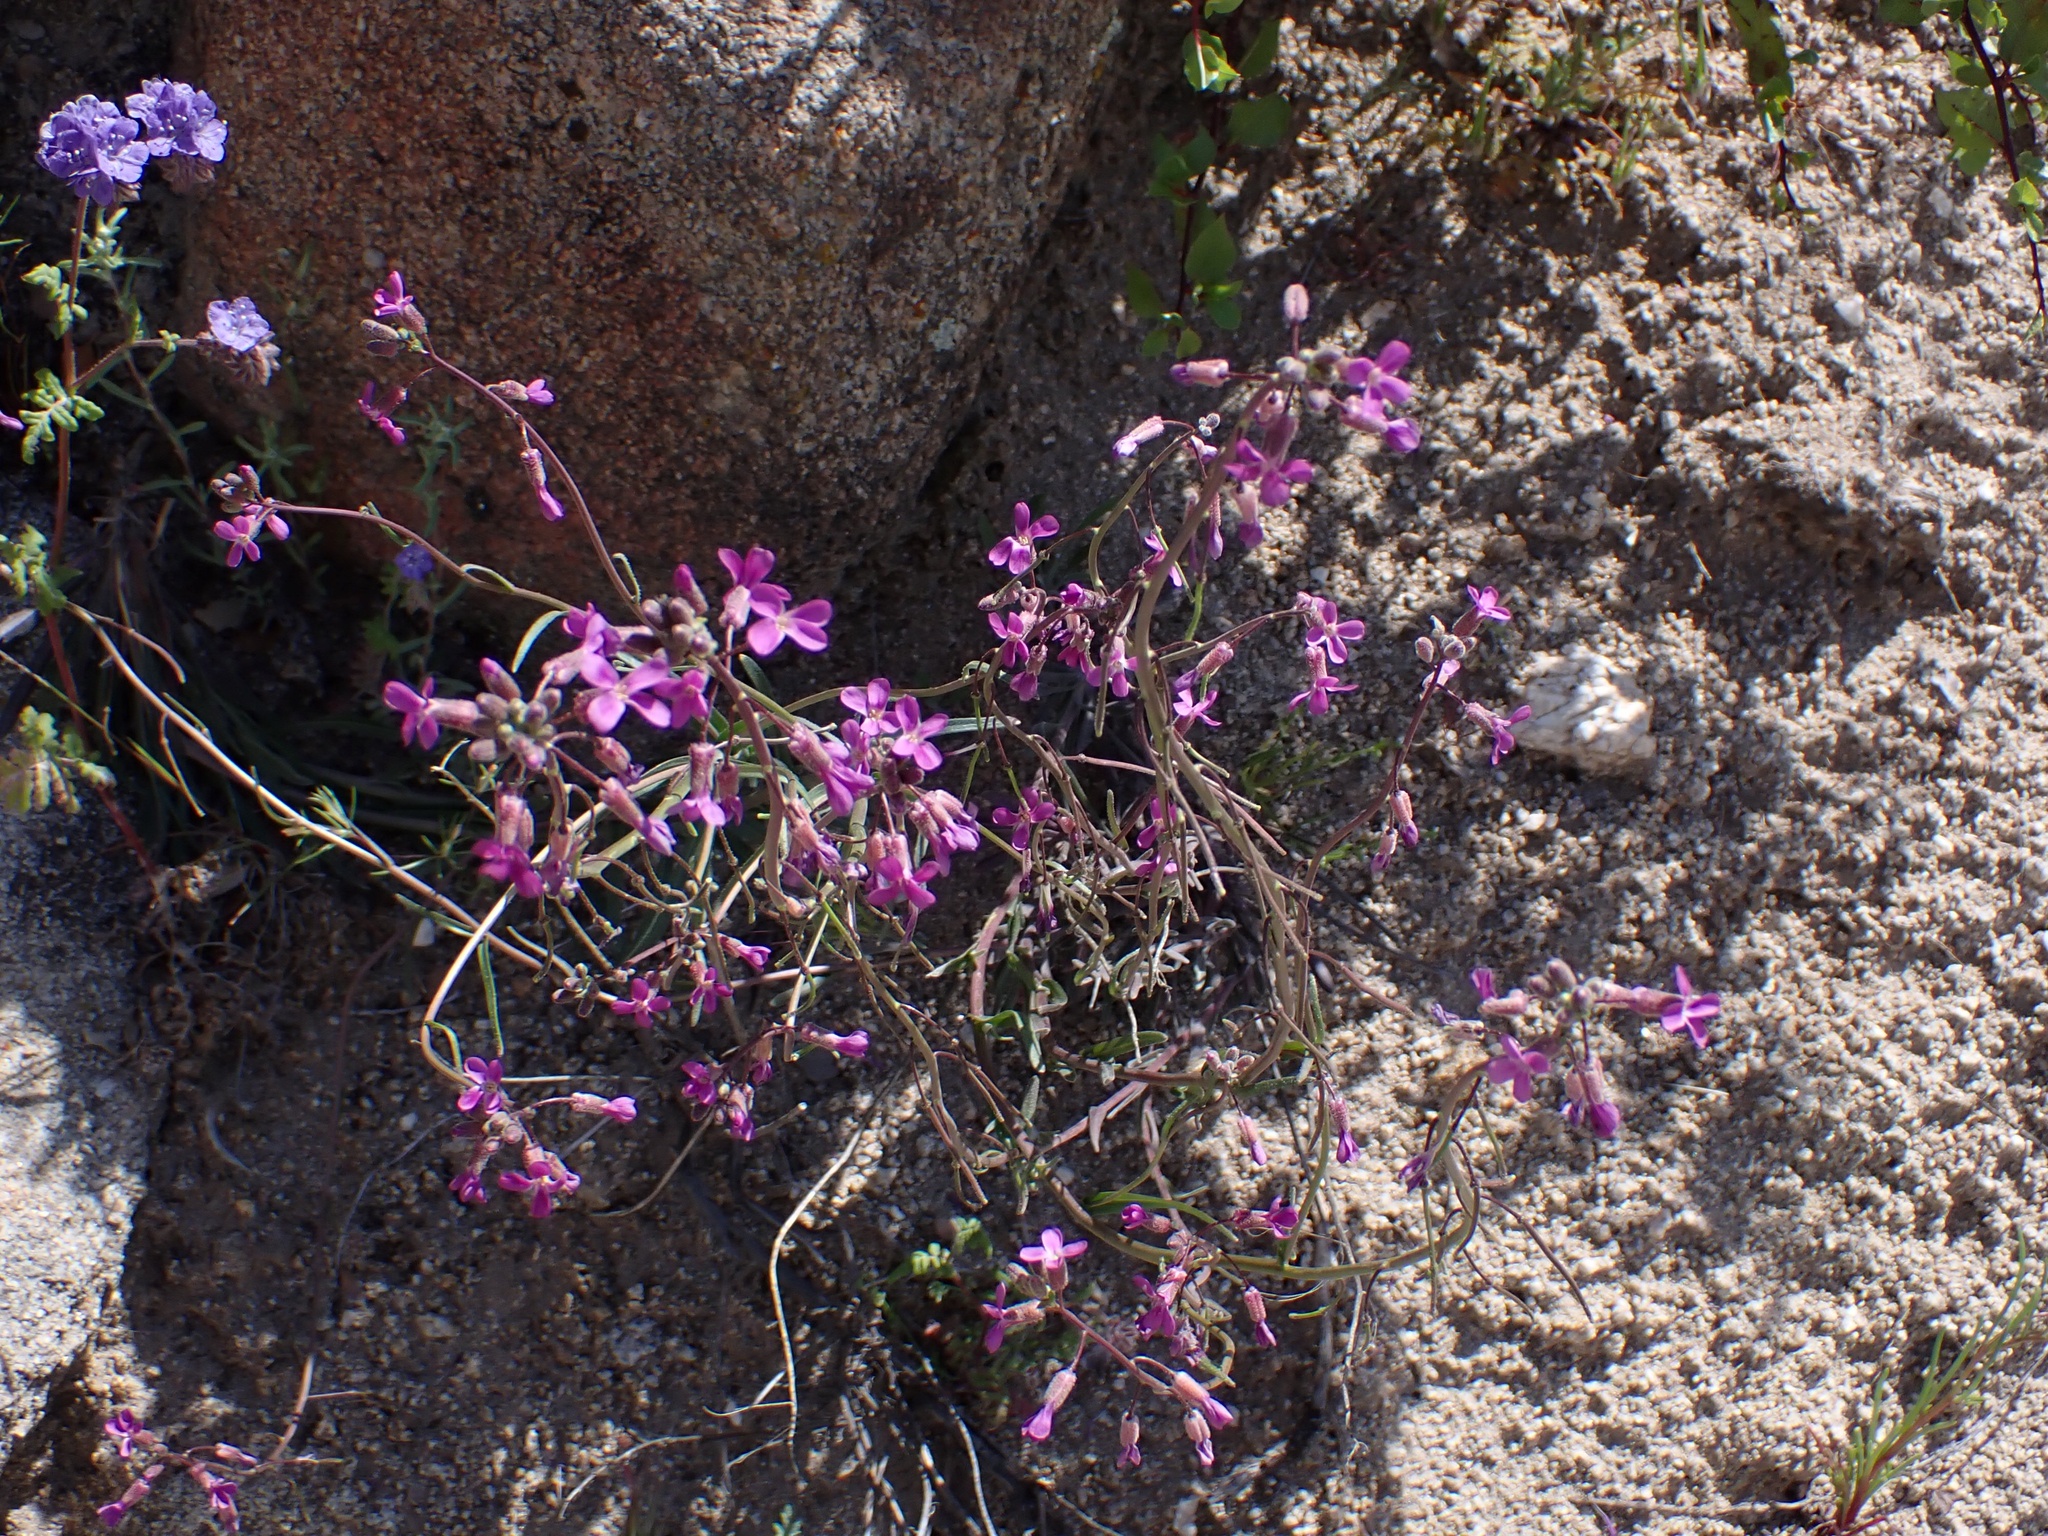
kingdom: Plantae
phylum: Tracheophyta
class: Magnoliopsida
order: Brassicales
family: Brassicaceae
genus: Boechera
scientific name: Boechera xylopoda
